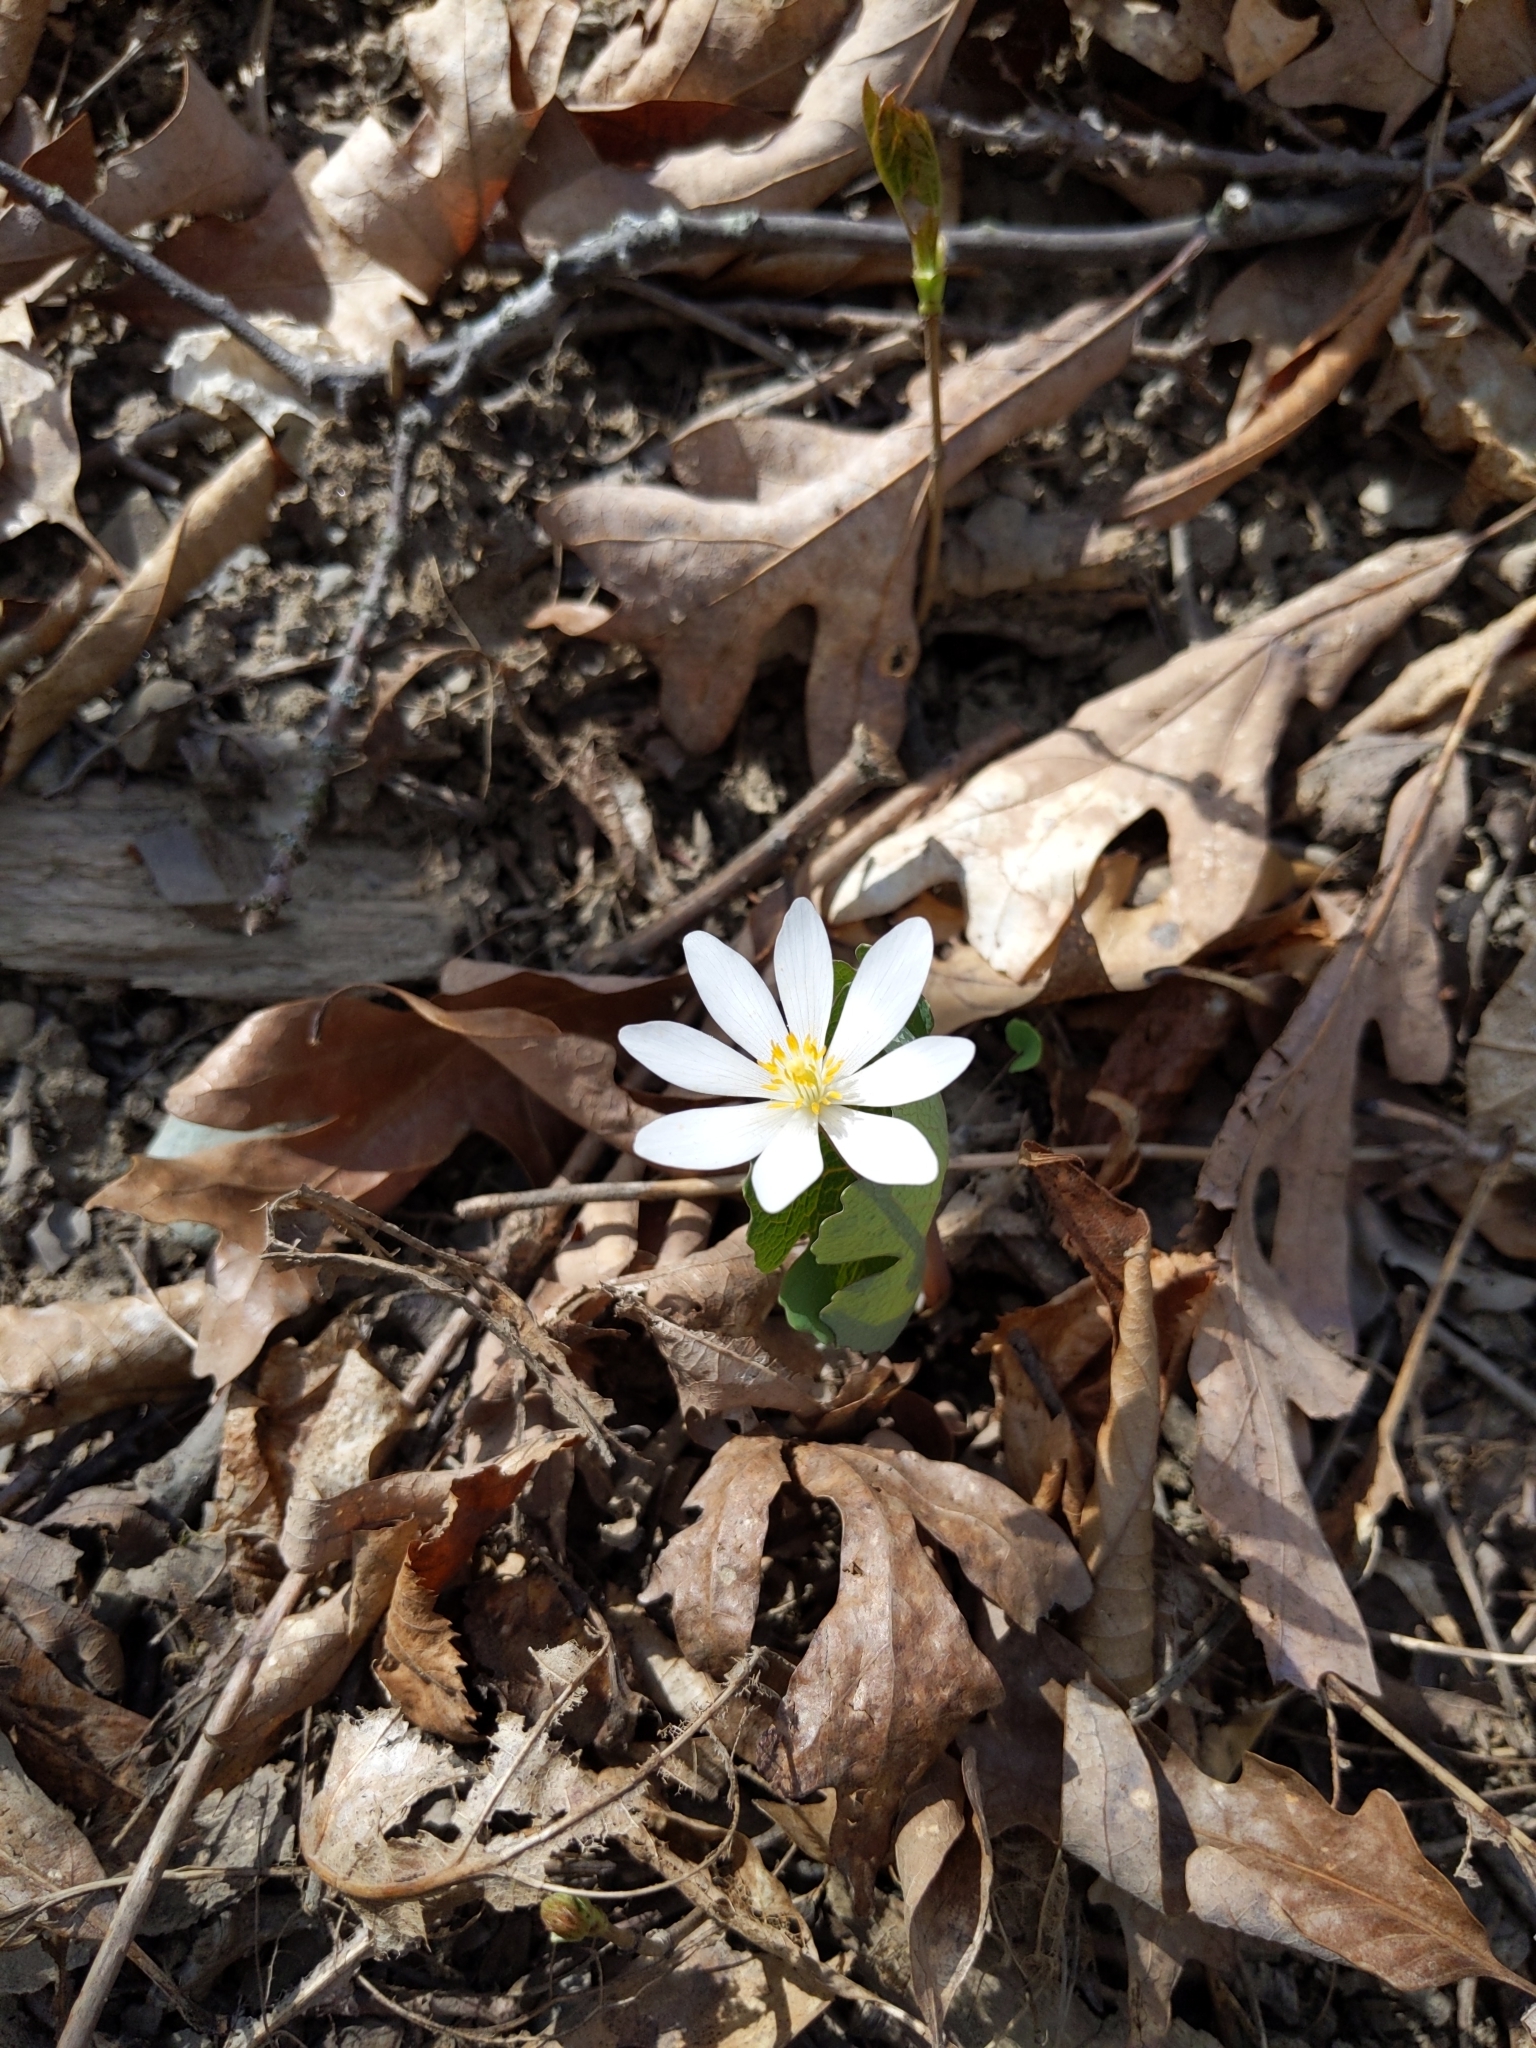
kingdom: Plantae
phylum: Tracheophyta
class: Magnoliopsida
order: Ranunculales
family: Papaveraceae
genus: Sanguinaria
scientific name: Sanguinaria canadensis
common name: Bloodroot
